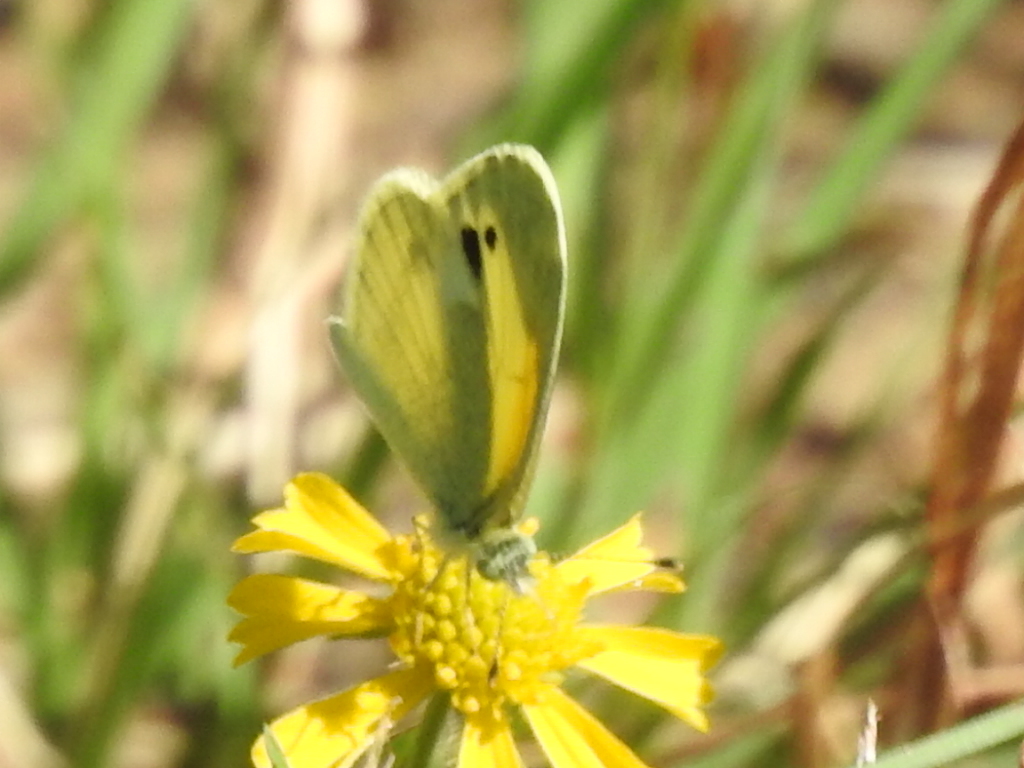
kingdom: Animalia
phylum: Arthropoda
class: Insecta
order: Lepidoptera
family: Pieridae
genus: Nathalis
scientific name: Nathalis iole
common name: Dainty sulphur
